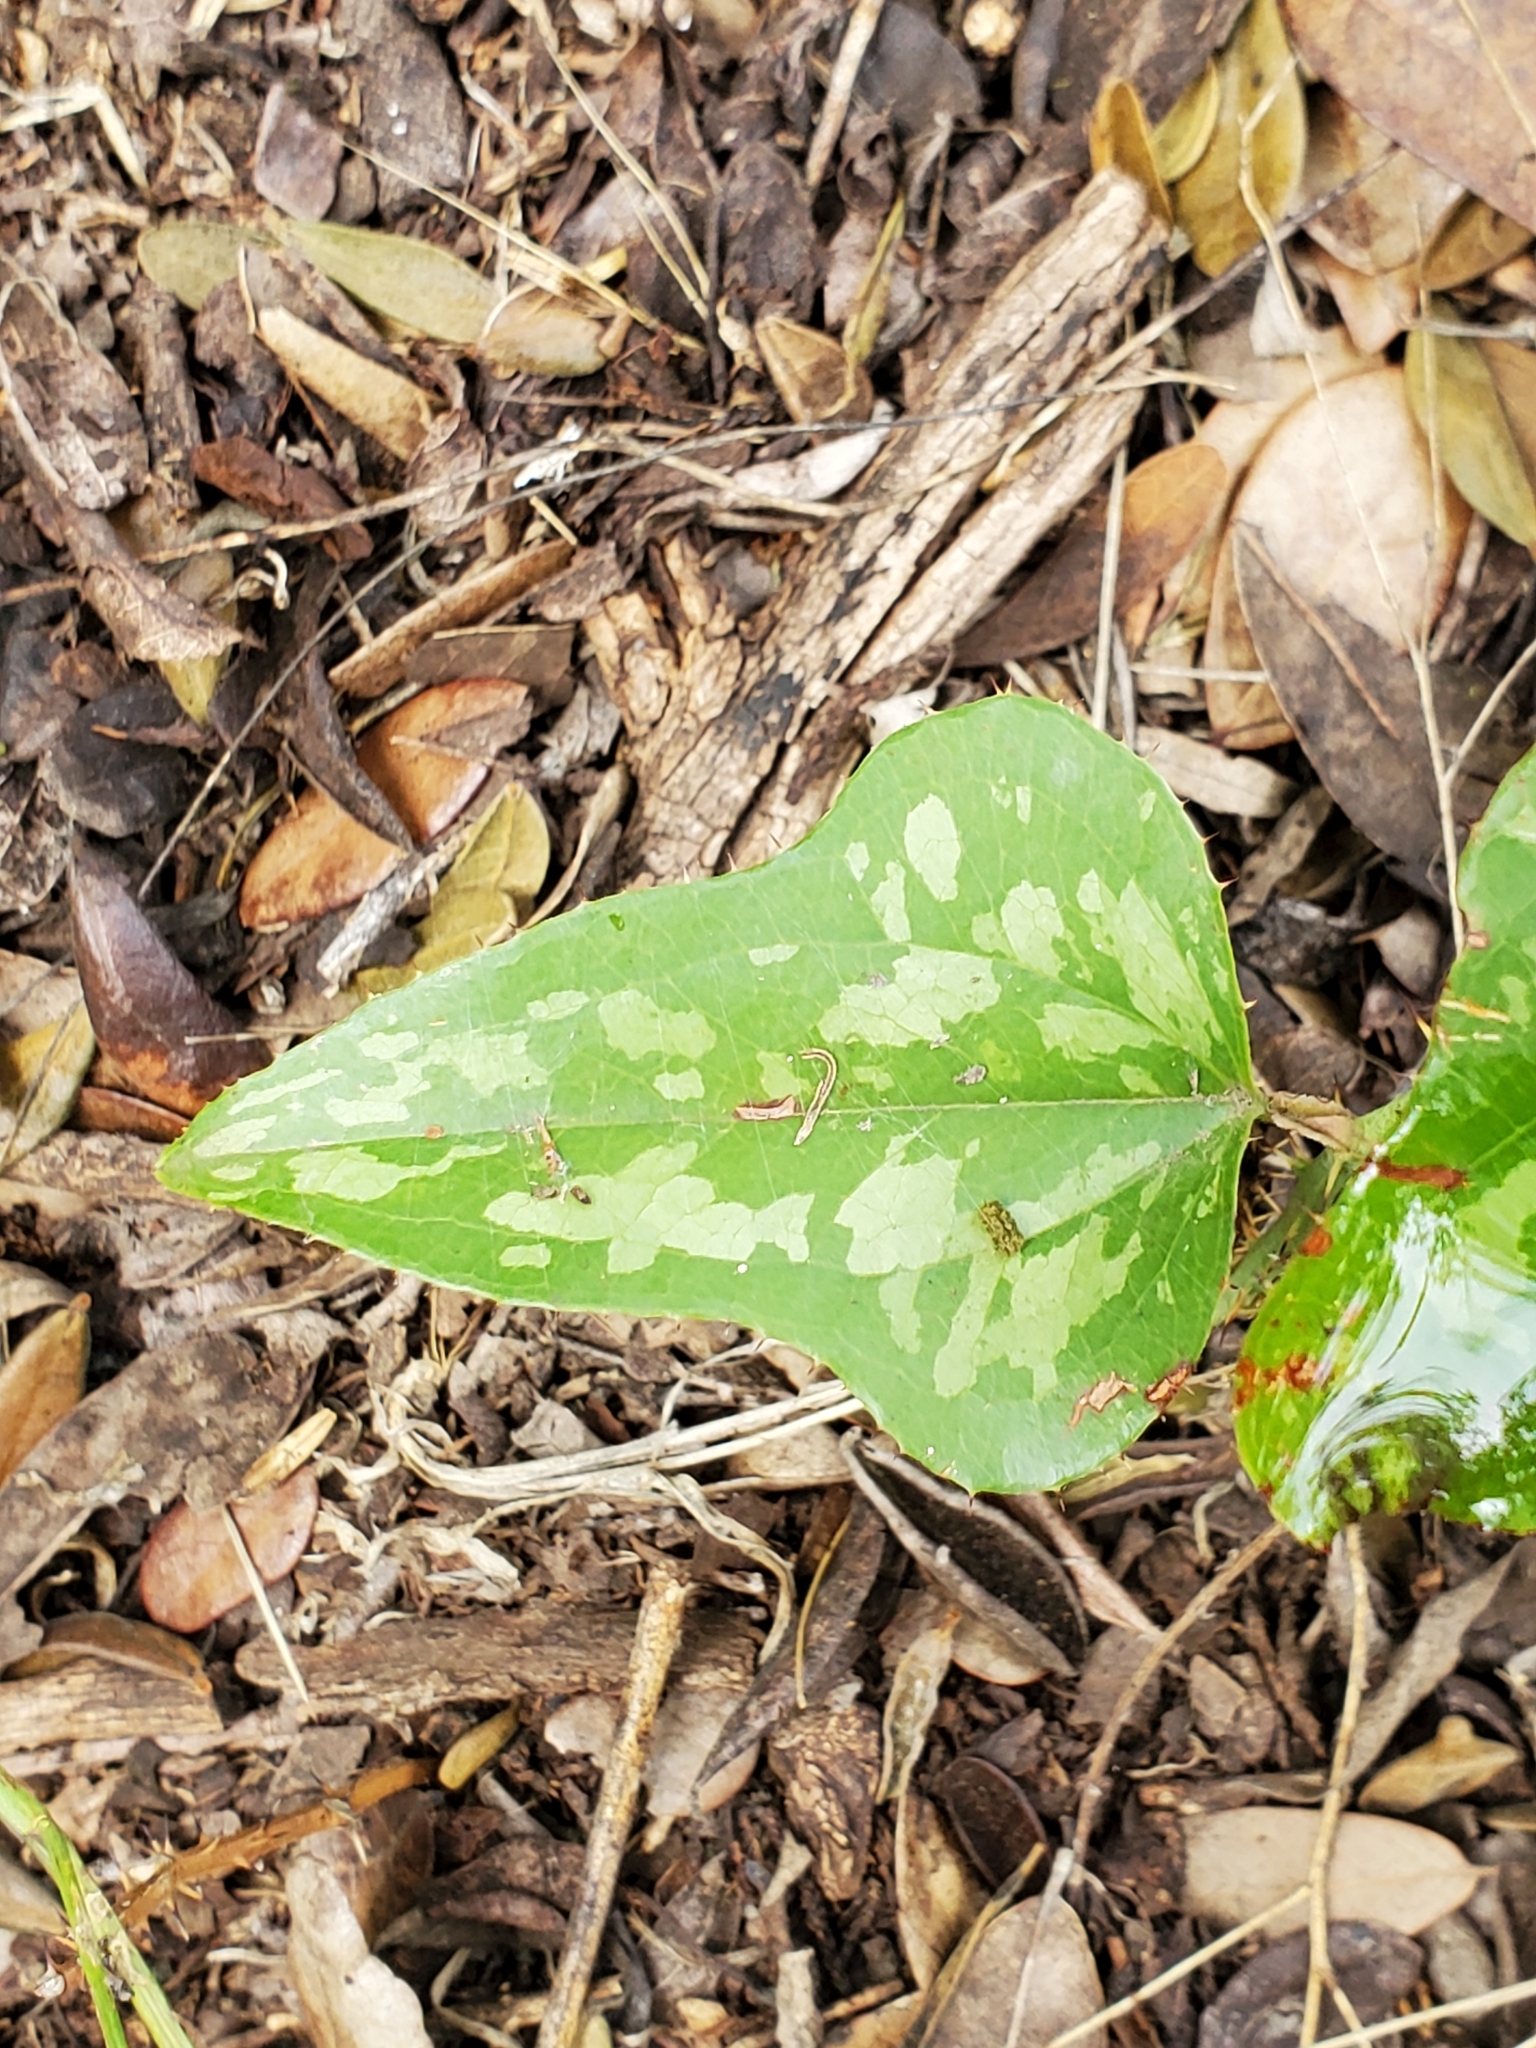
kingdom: Plantae
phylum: Tracheophyta
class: Liliopsida
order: Liliales
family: Smilacaceae
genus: Smilax
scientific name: Smilax bona-nox
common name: Catbrier
